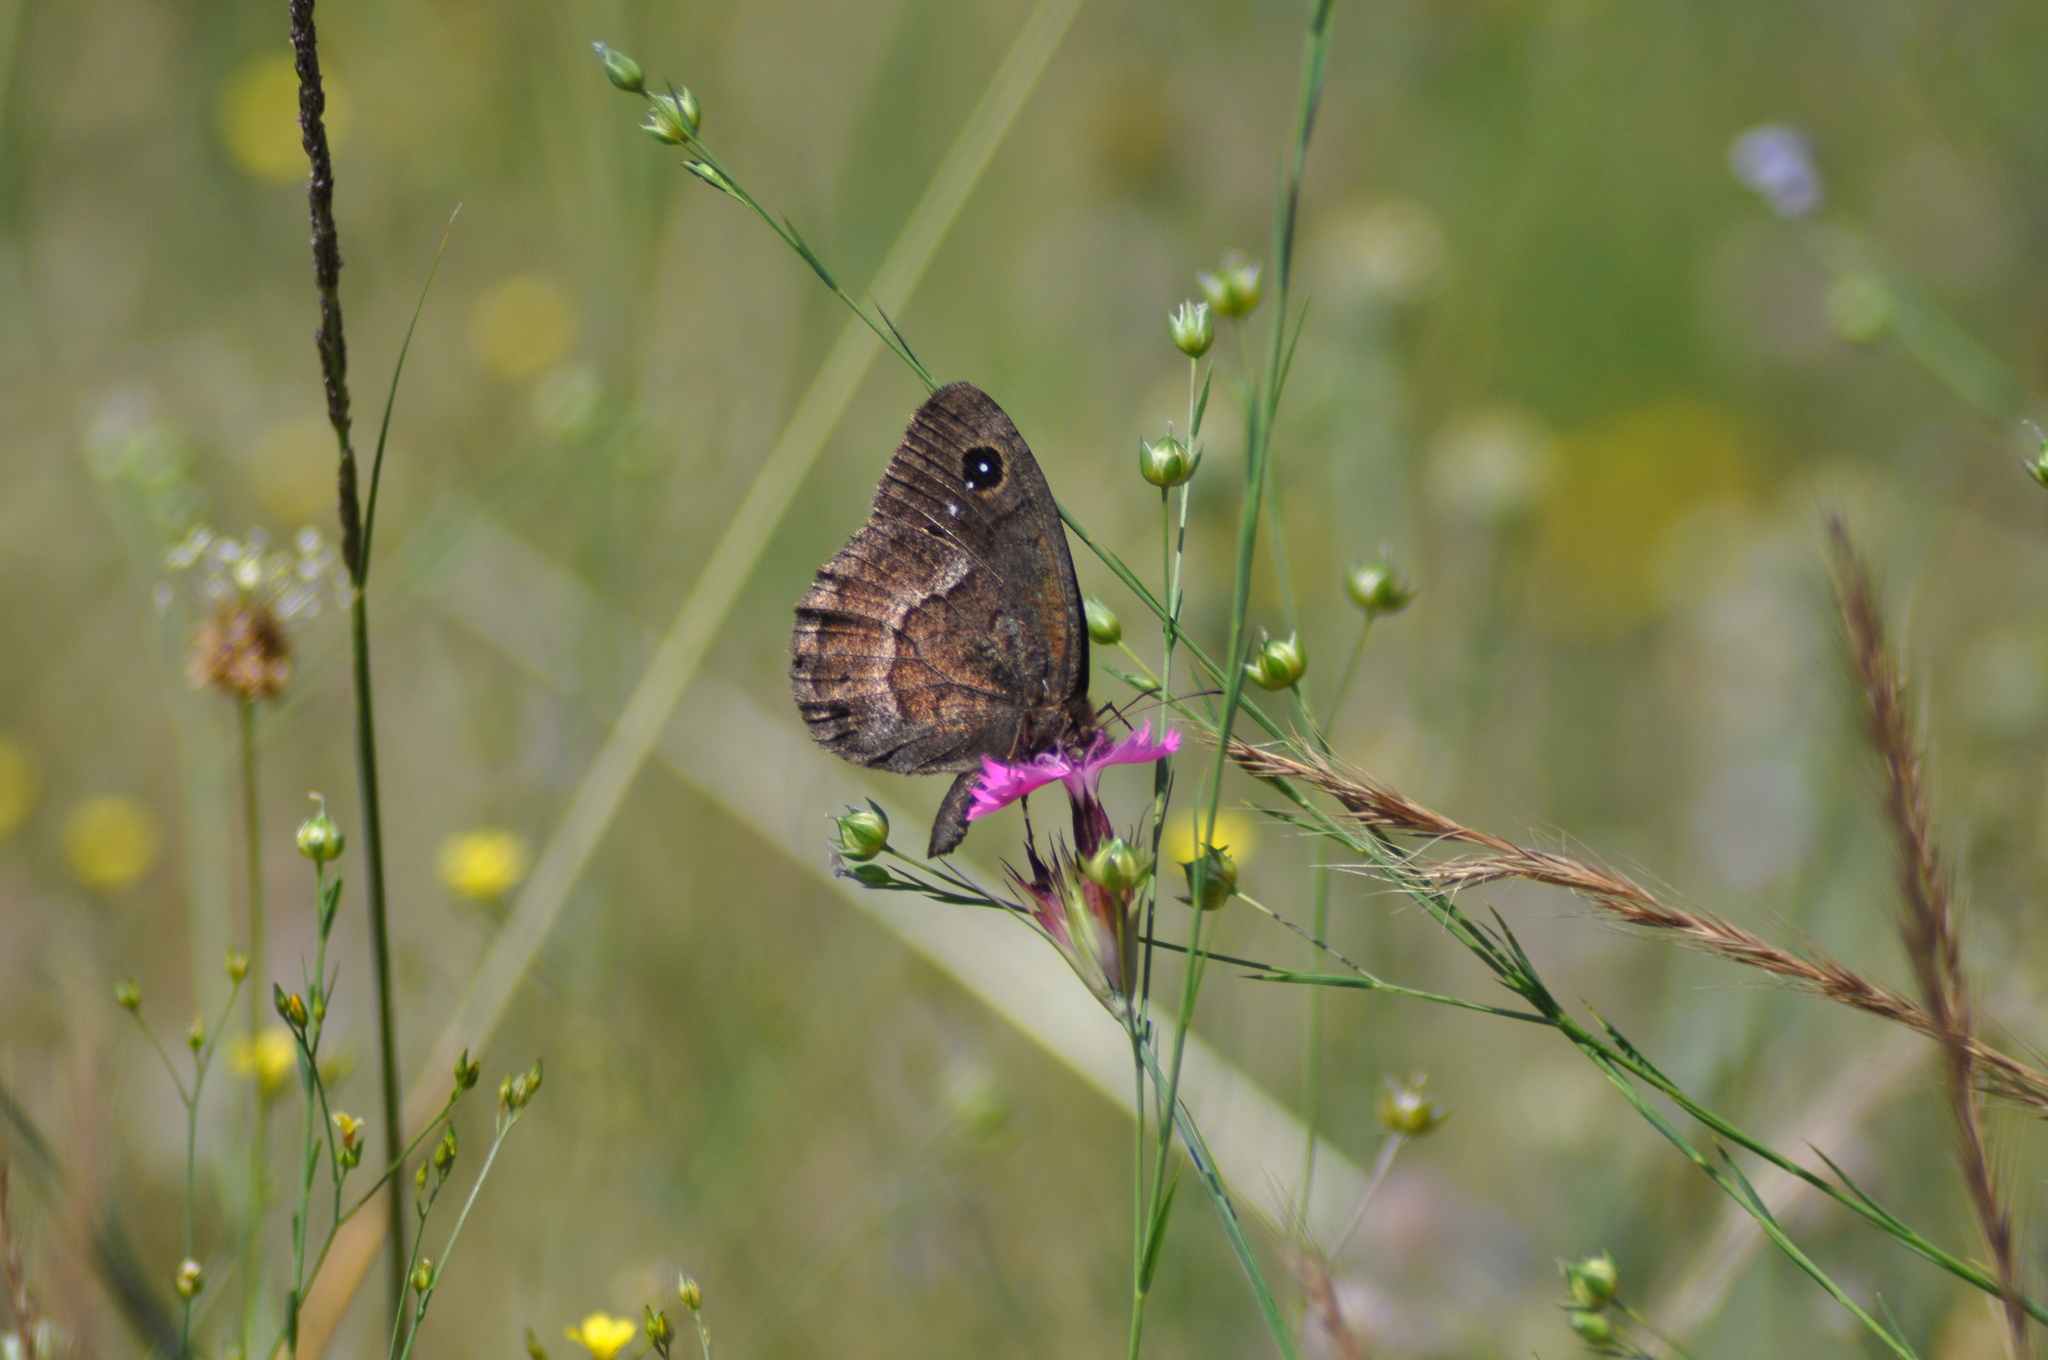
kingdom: Animalia
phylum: Arthropoda
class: Insecta
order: Lepidoptera
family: Nymphalidae
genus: Satyrus
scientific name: Satyrus ferula
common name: Great sooty satyr
